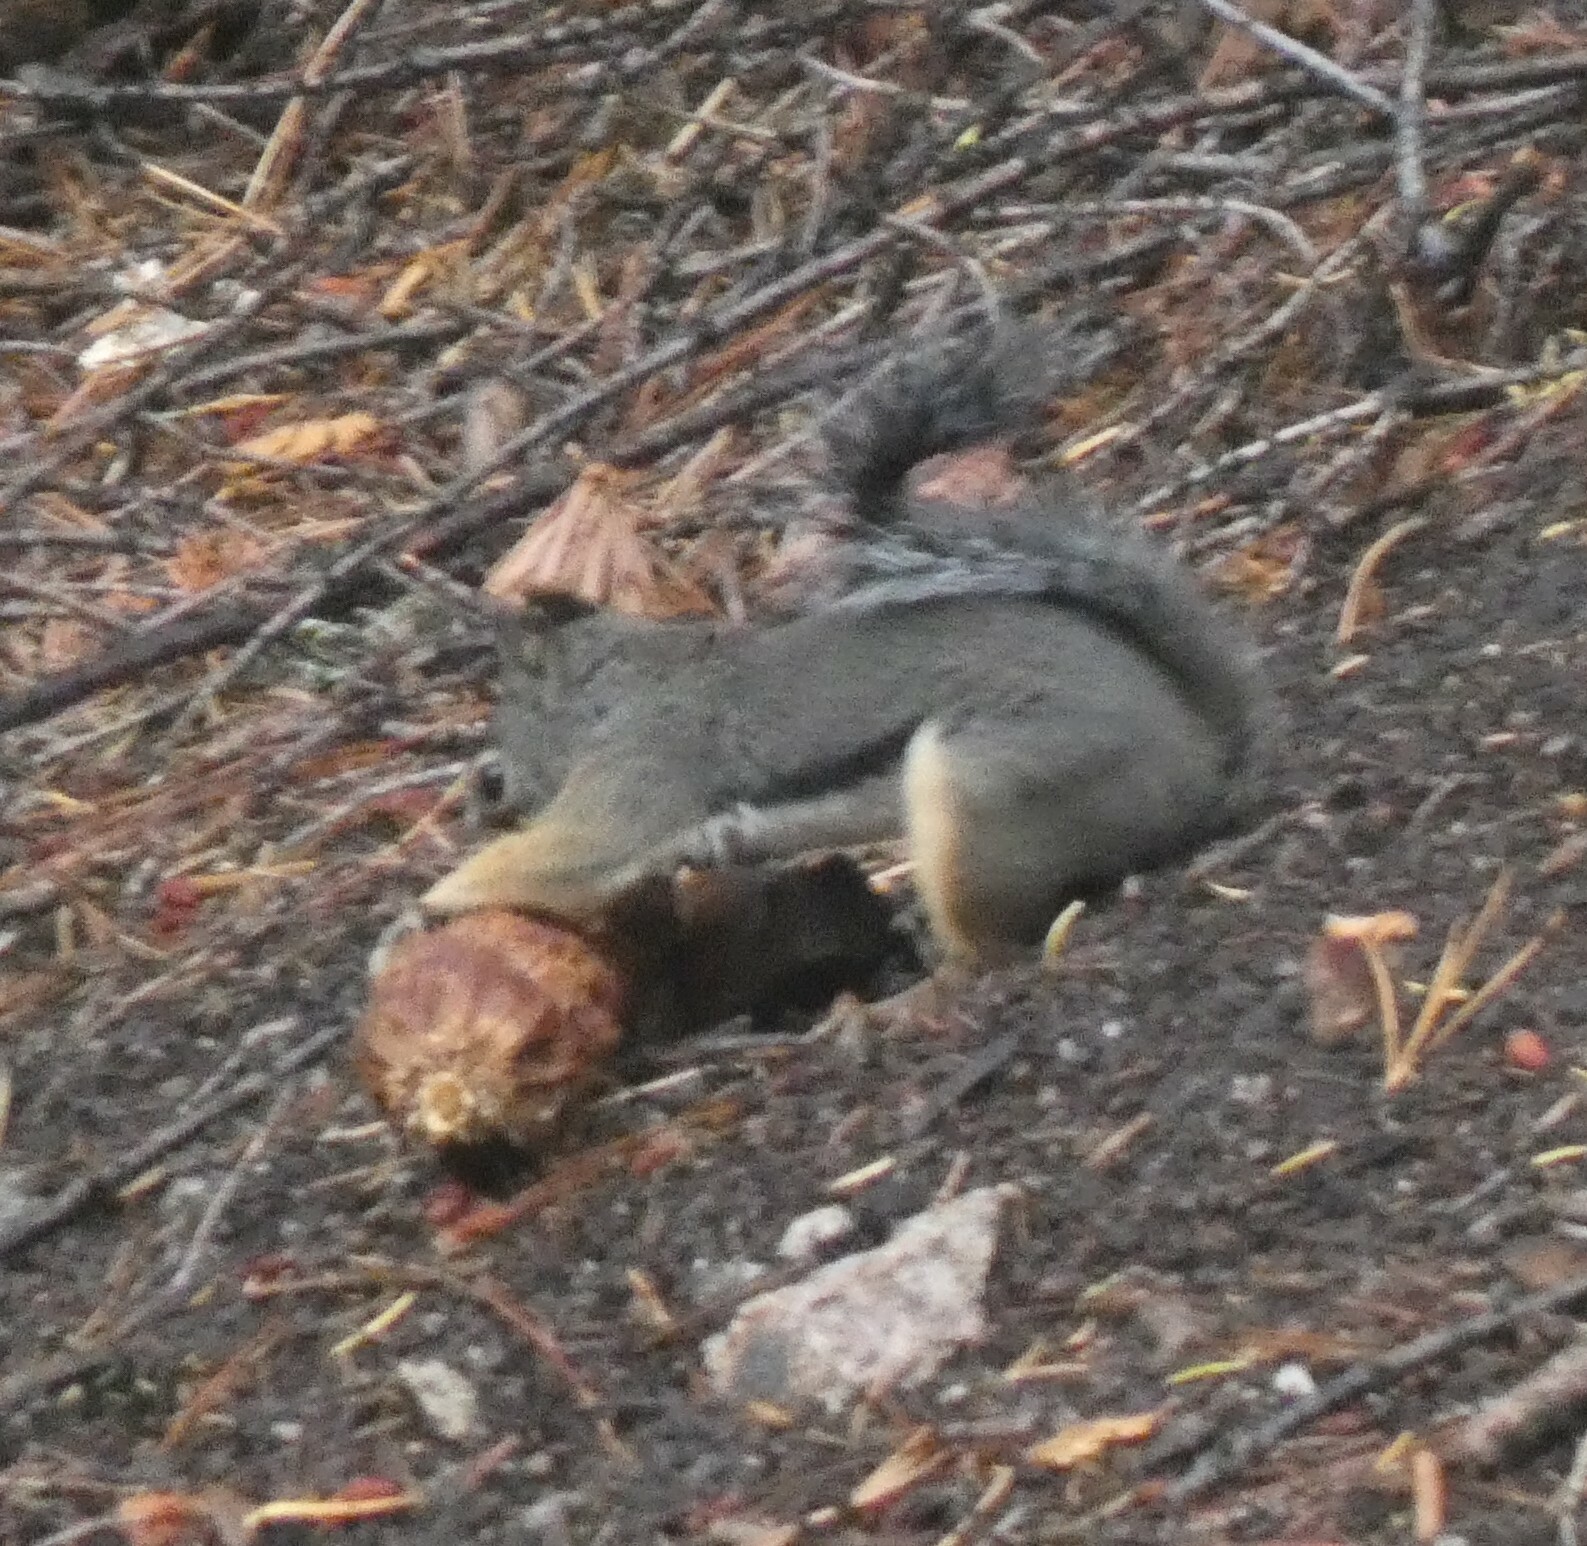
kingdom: Animalia
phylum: Chordata
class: Mammalia
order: Rodentia
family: Sciuridae
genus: Tamiasciurus
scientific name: Tamiasciurus douglasii
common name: Douglas's squirrel
